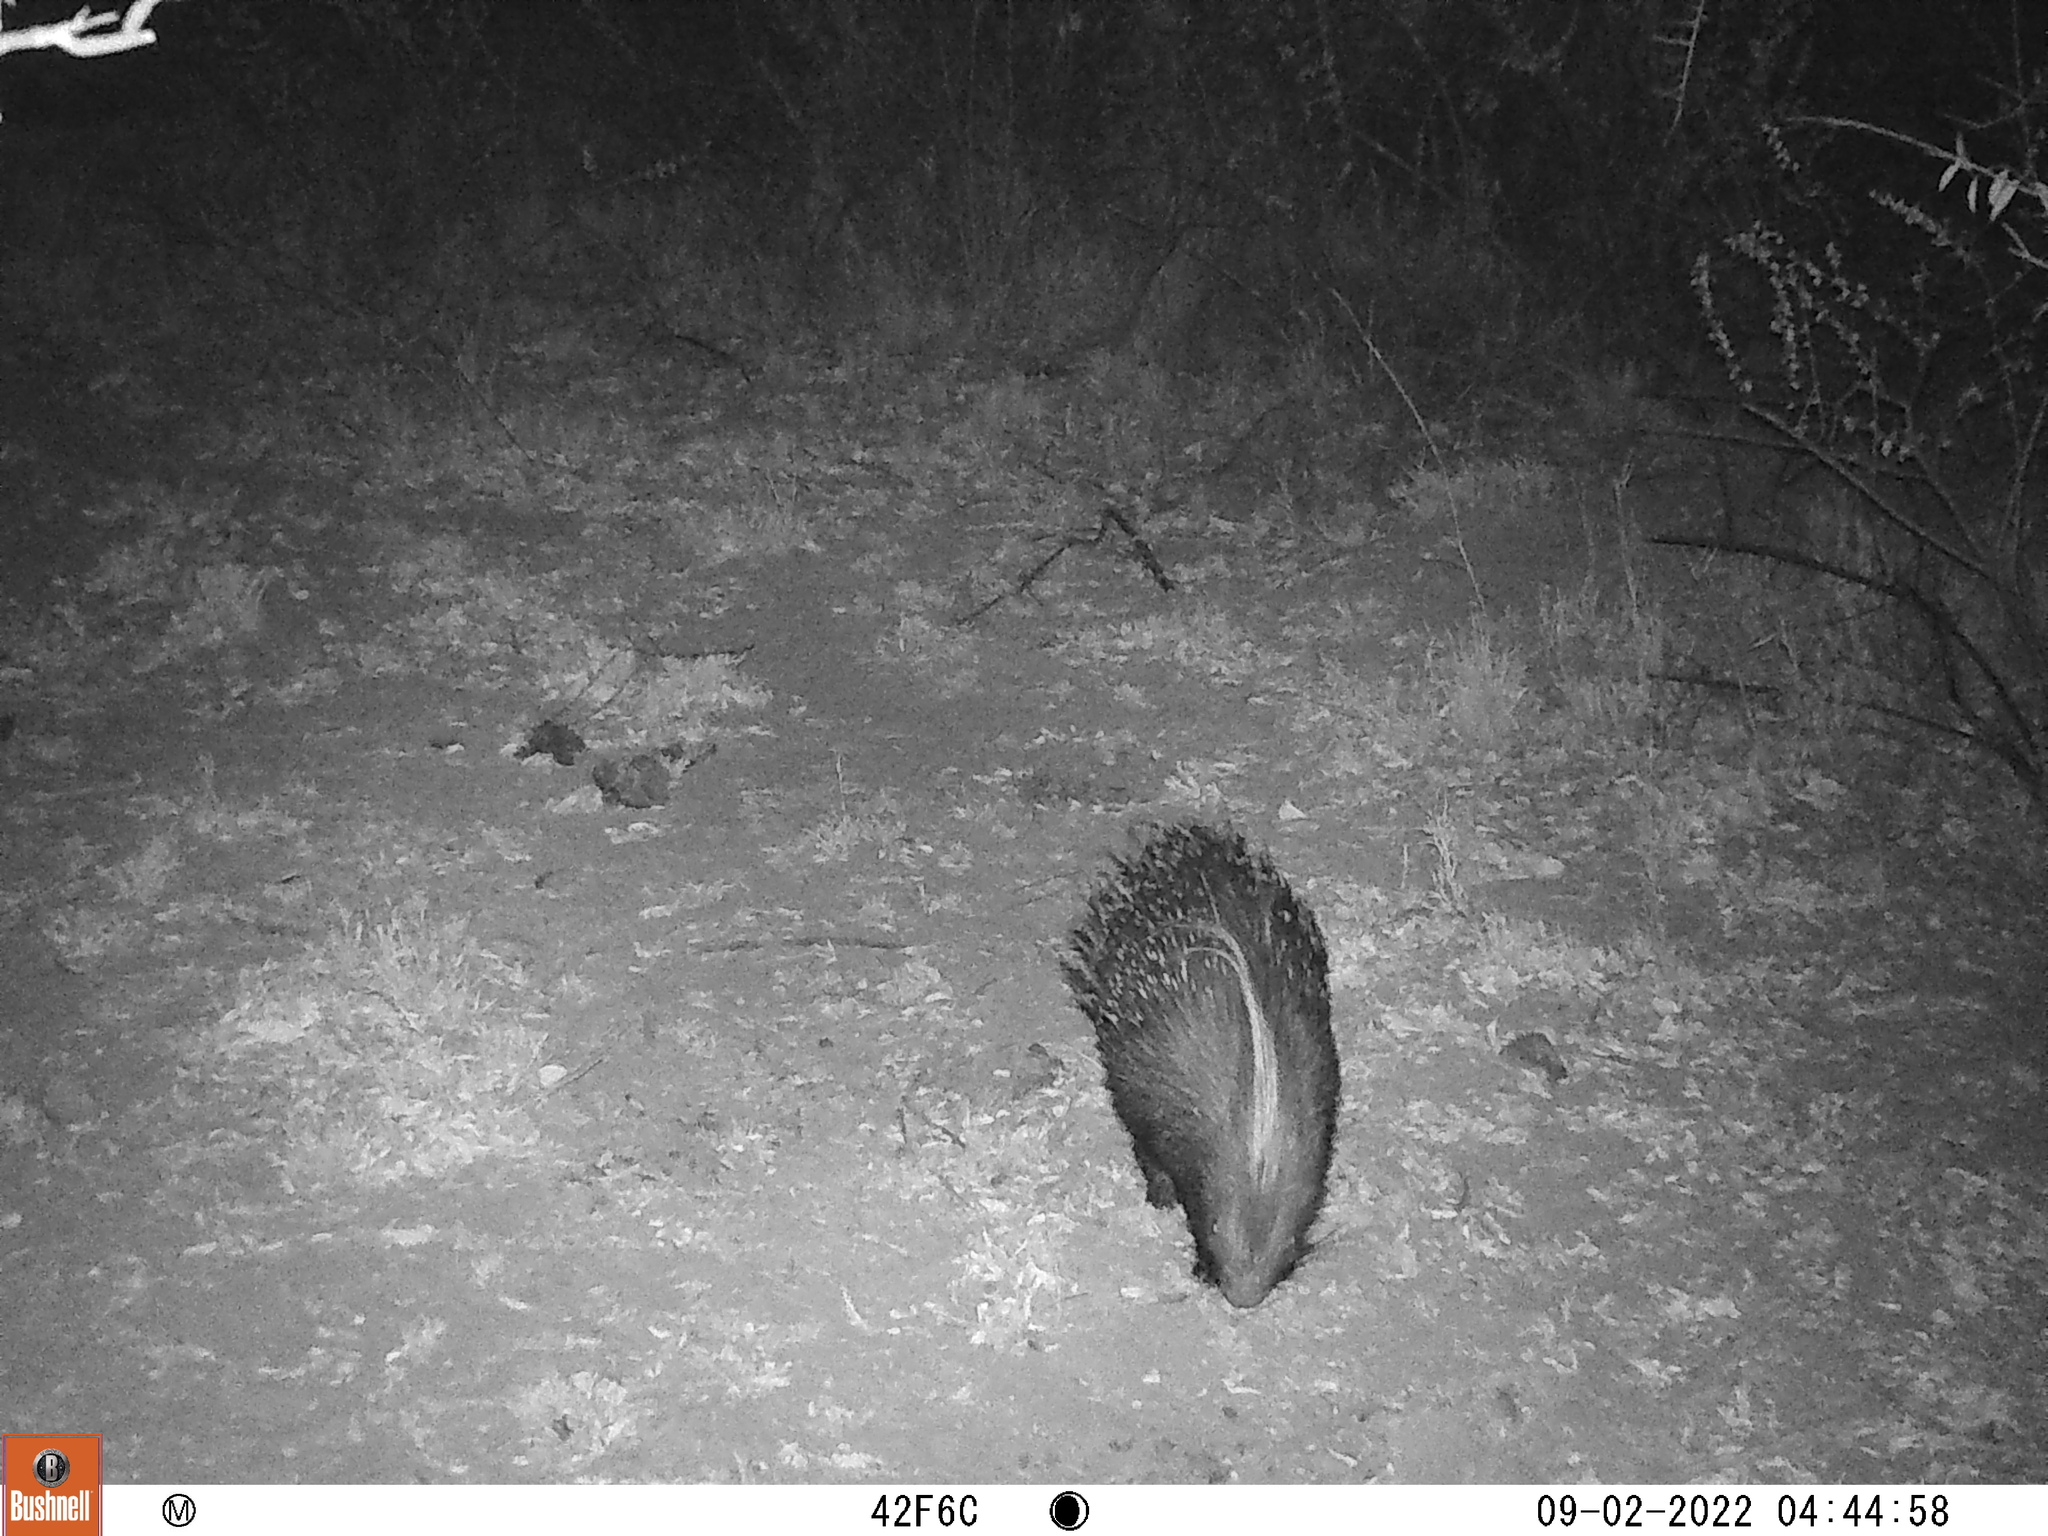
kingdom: Animalia
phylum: Chordata
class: Mammalia
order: Rodentia
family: Hystricidae
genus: Hystrix
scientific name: Hystrix africaeaustralis
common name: Cape porcupine
